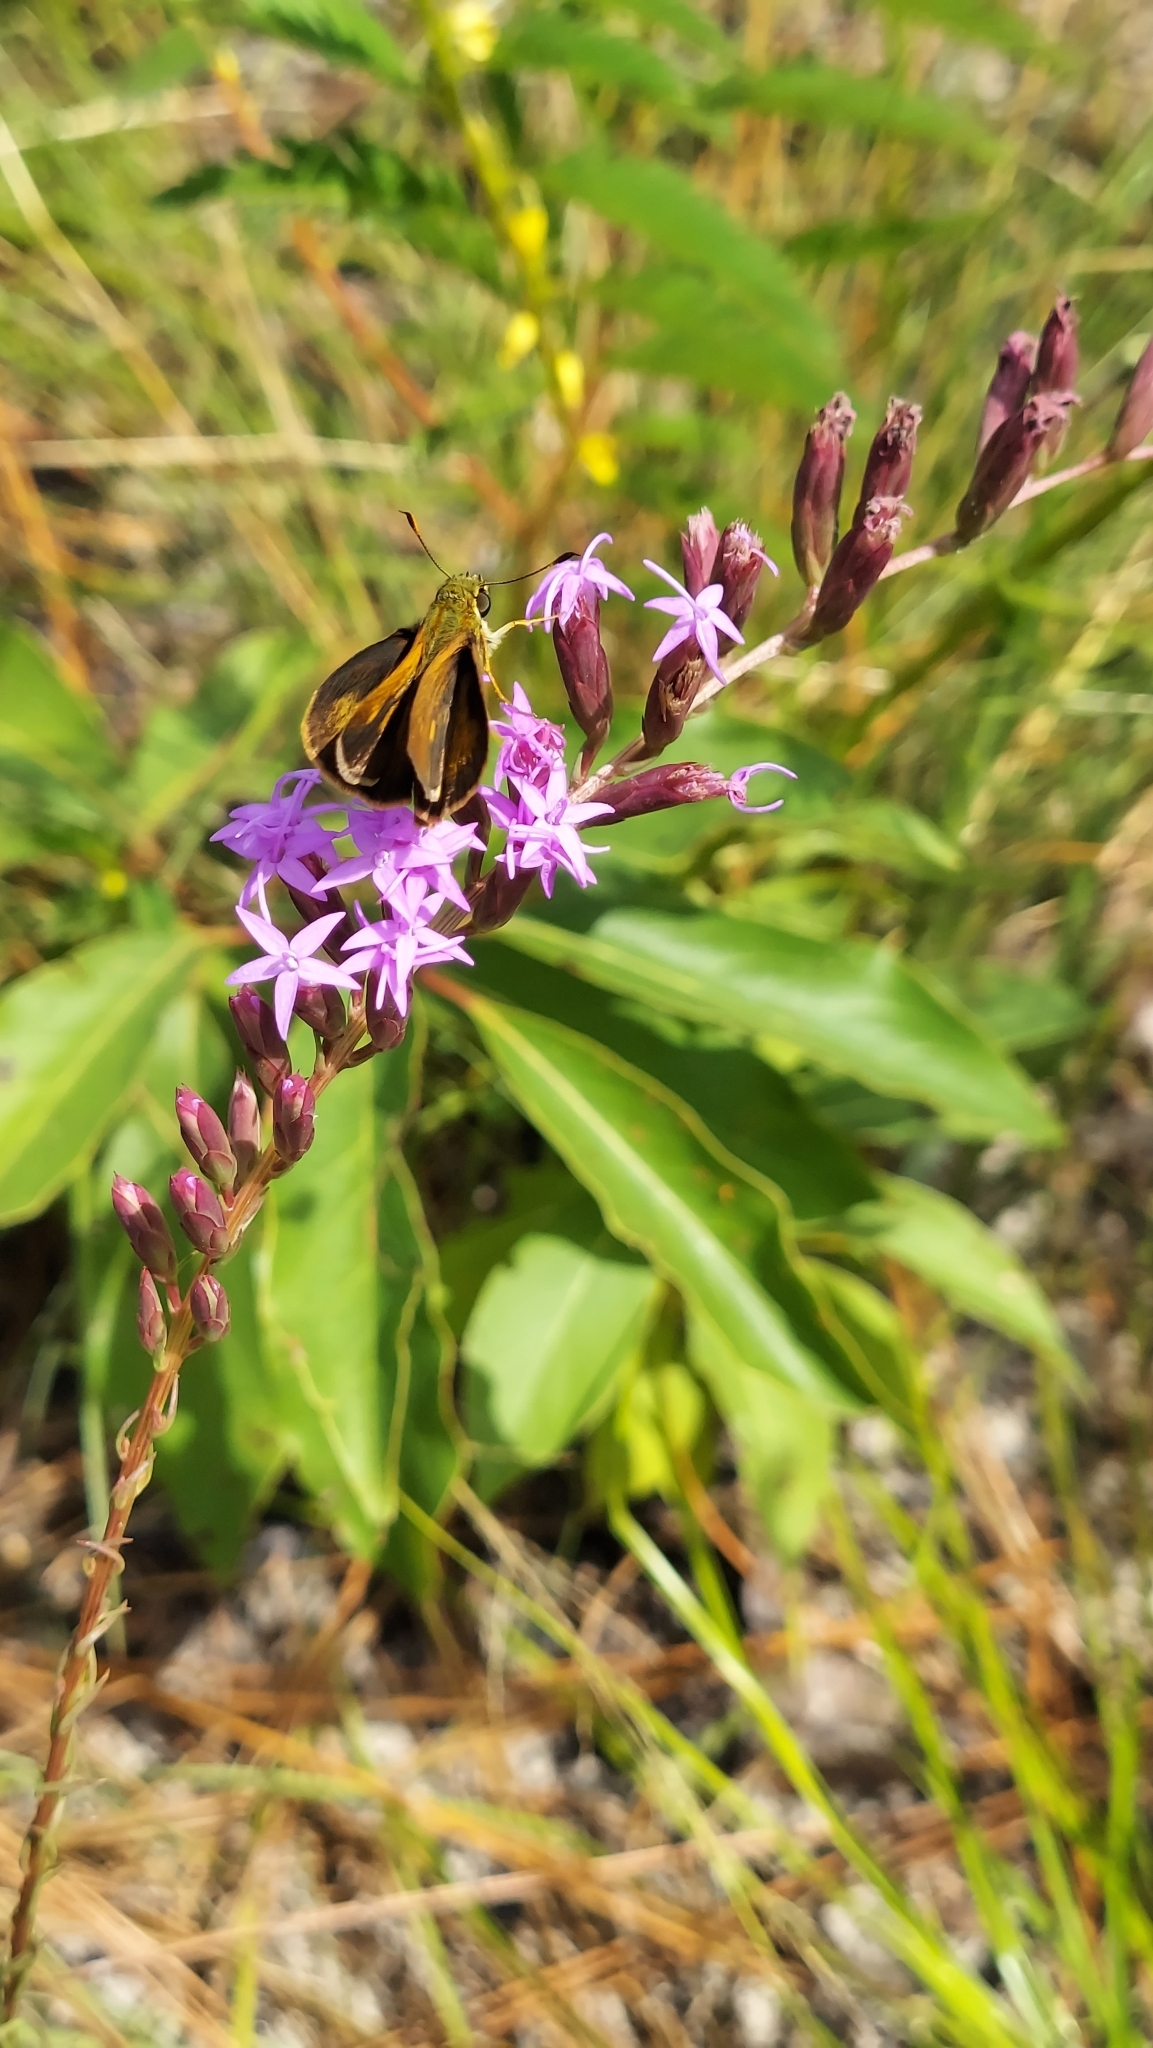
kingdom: Animalia
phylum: Arthropoda
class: Insecta
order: Lepidoptera
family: Hesperiidae
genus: Polites
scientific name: Polites themistocles
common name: Tawny-edged skipper
